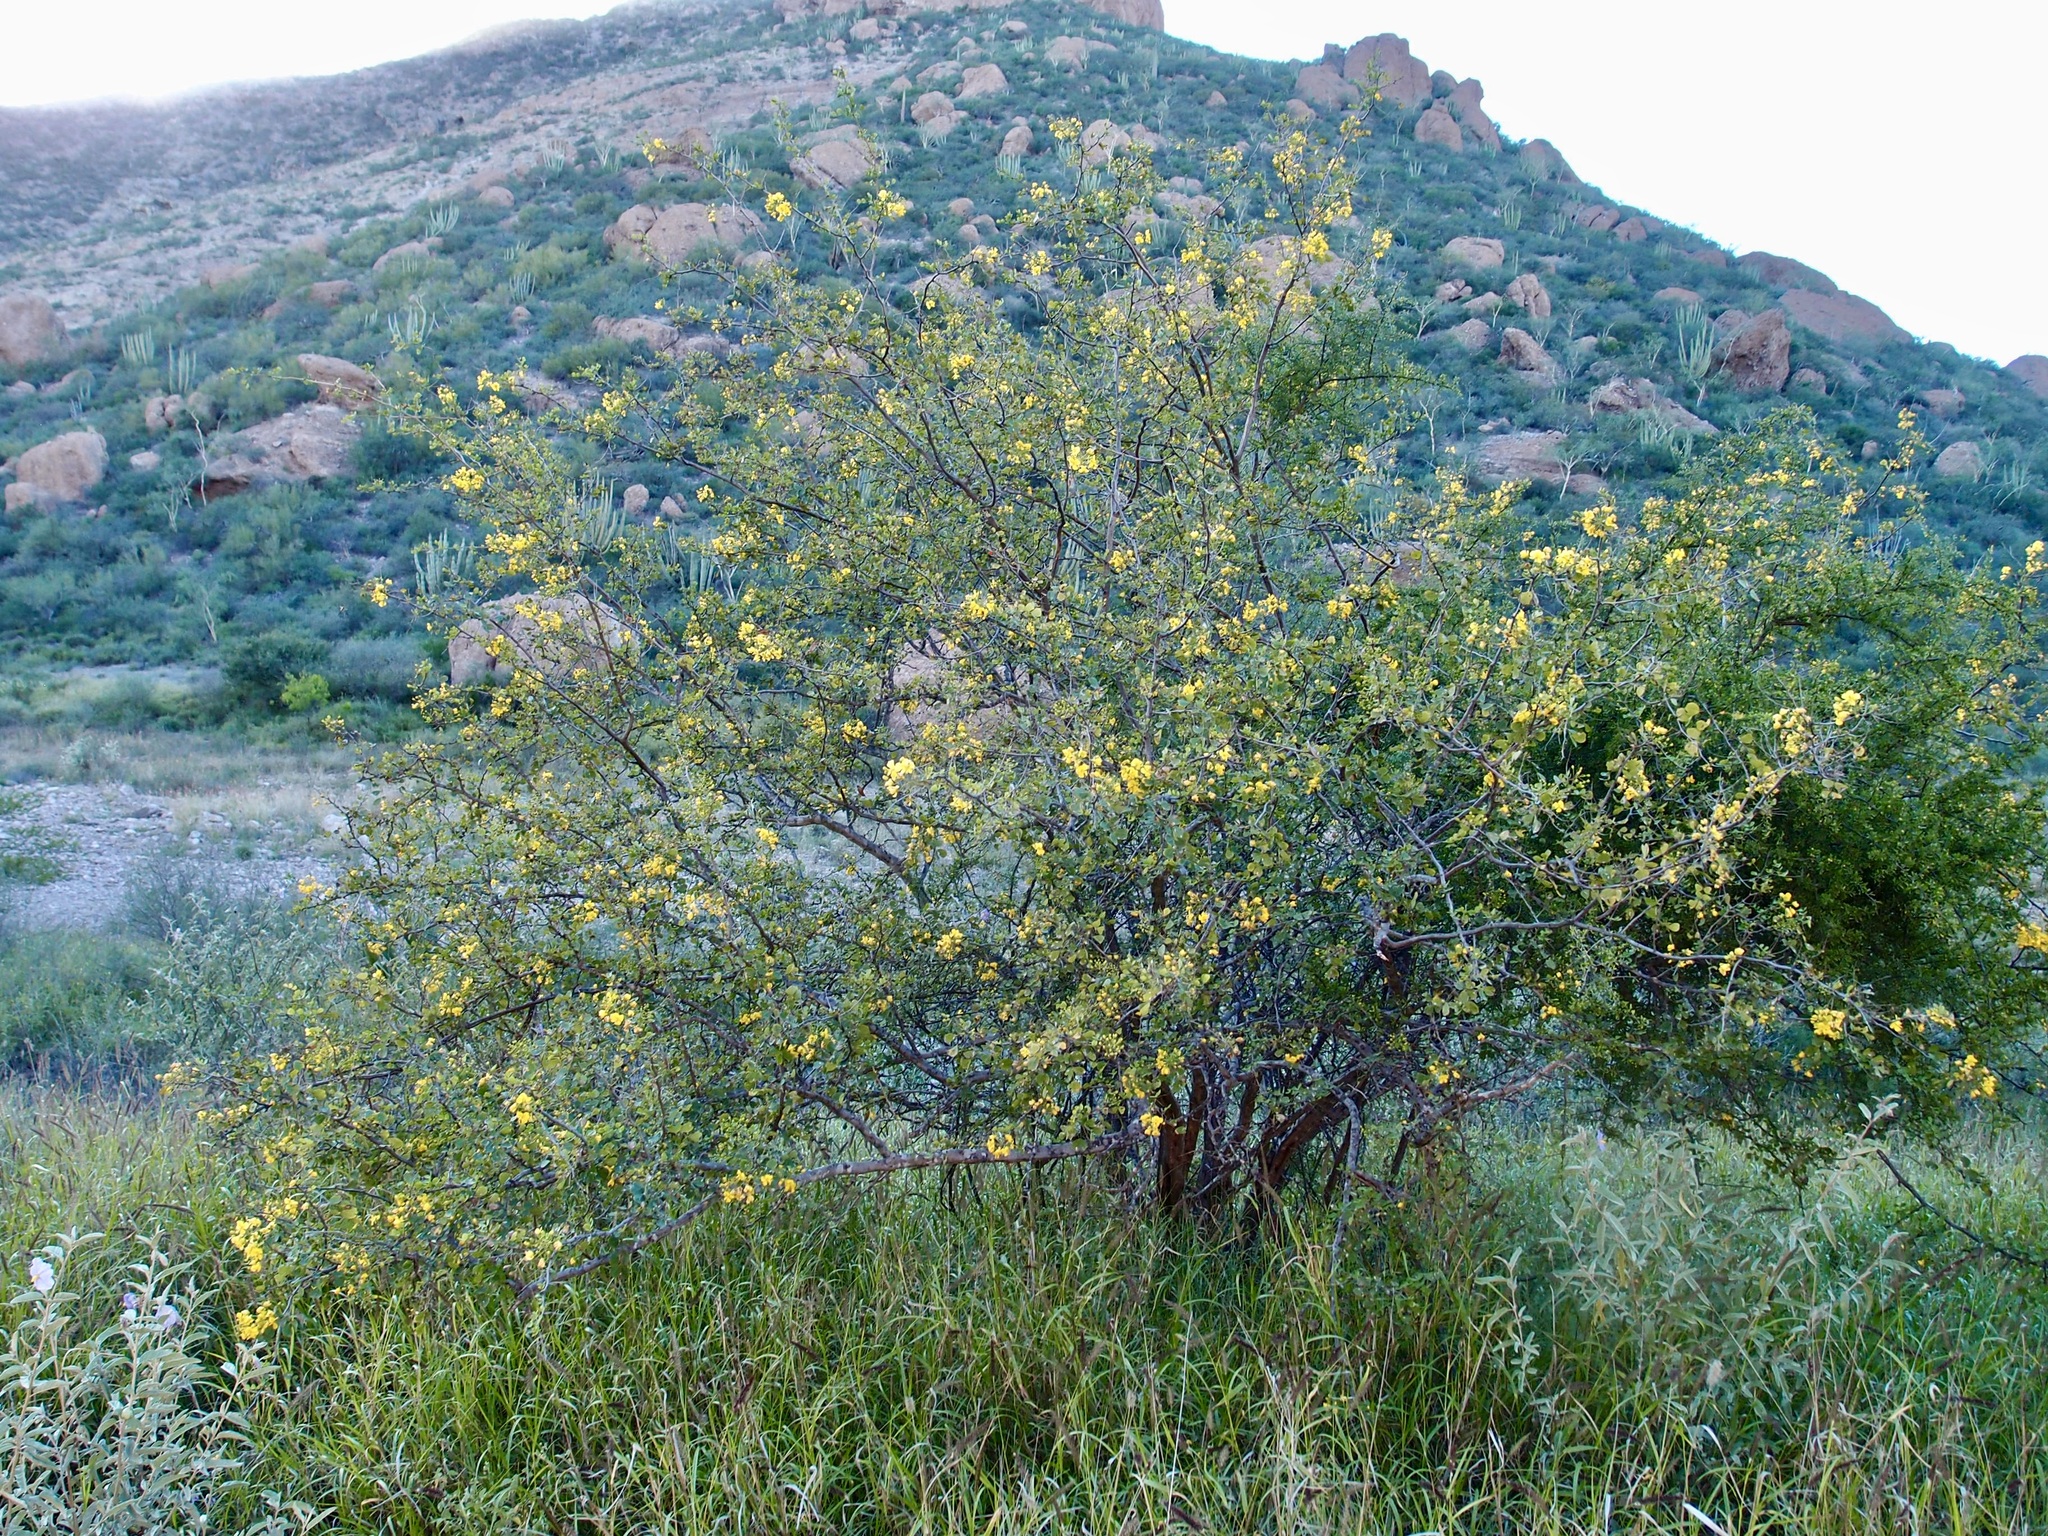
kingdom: Plantae
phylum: Tracheophyta
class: Magnoliopsida
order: Fabales
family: Fabaceae
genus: Haematoxylum
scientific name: Haematoxylum brasiletto
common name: Peachwood
